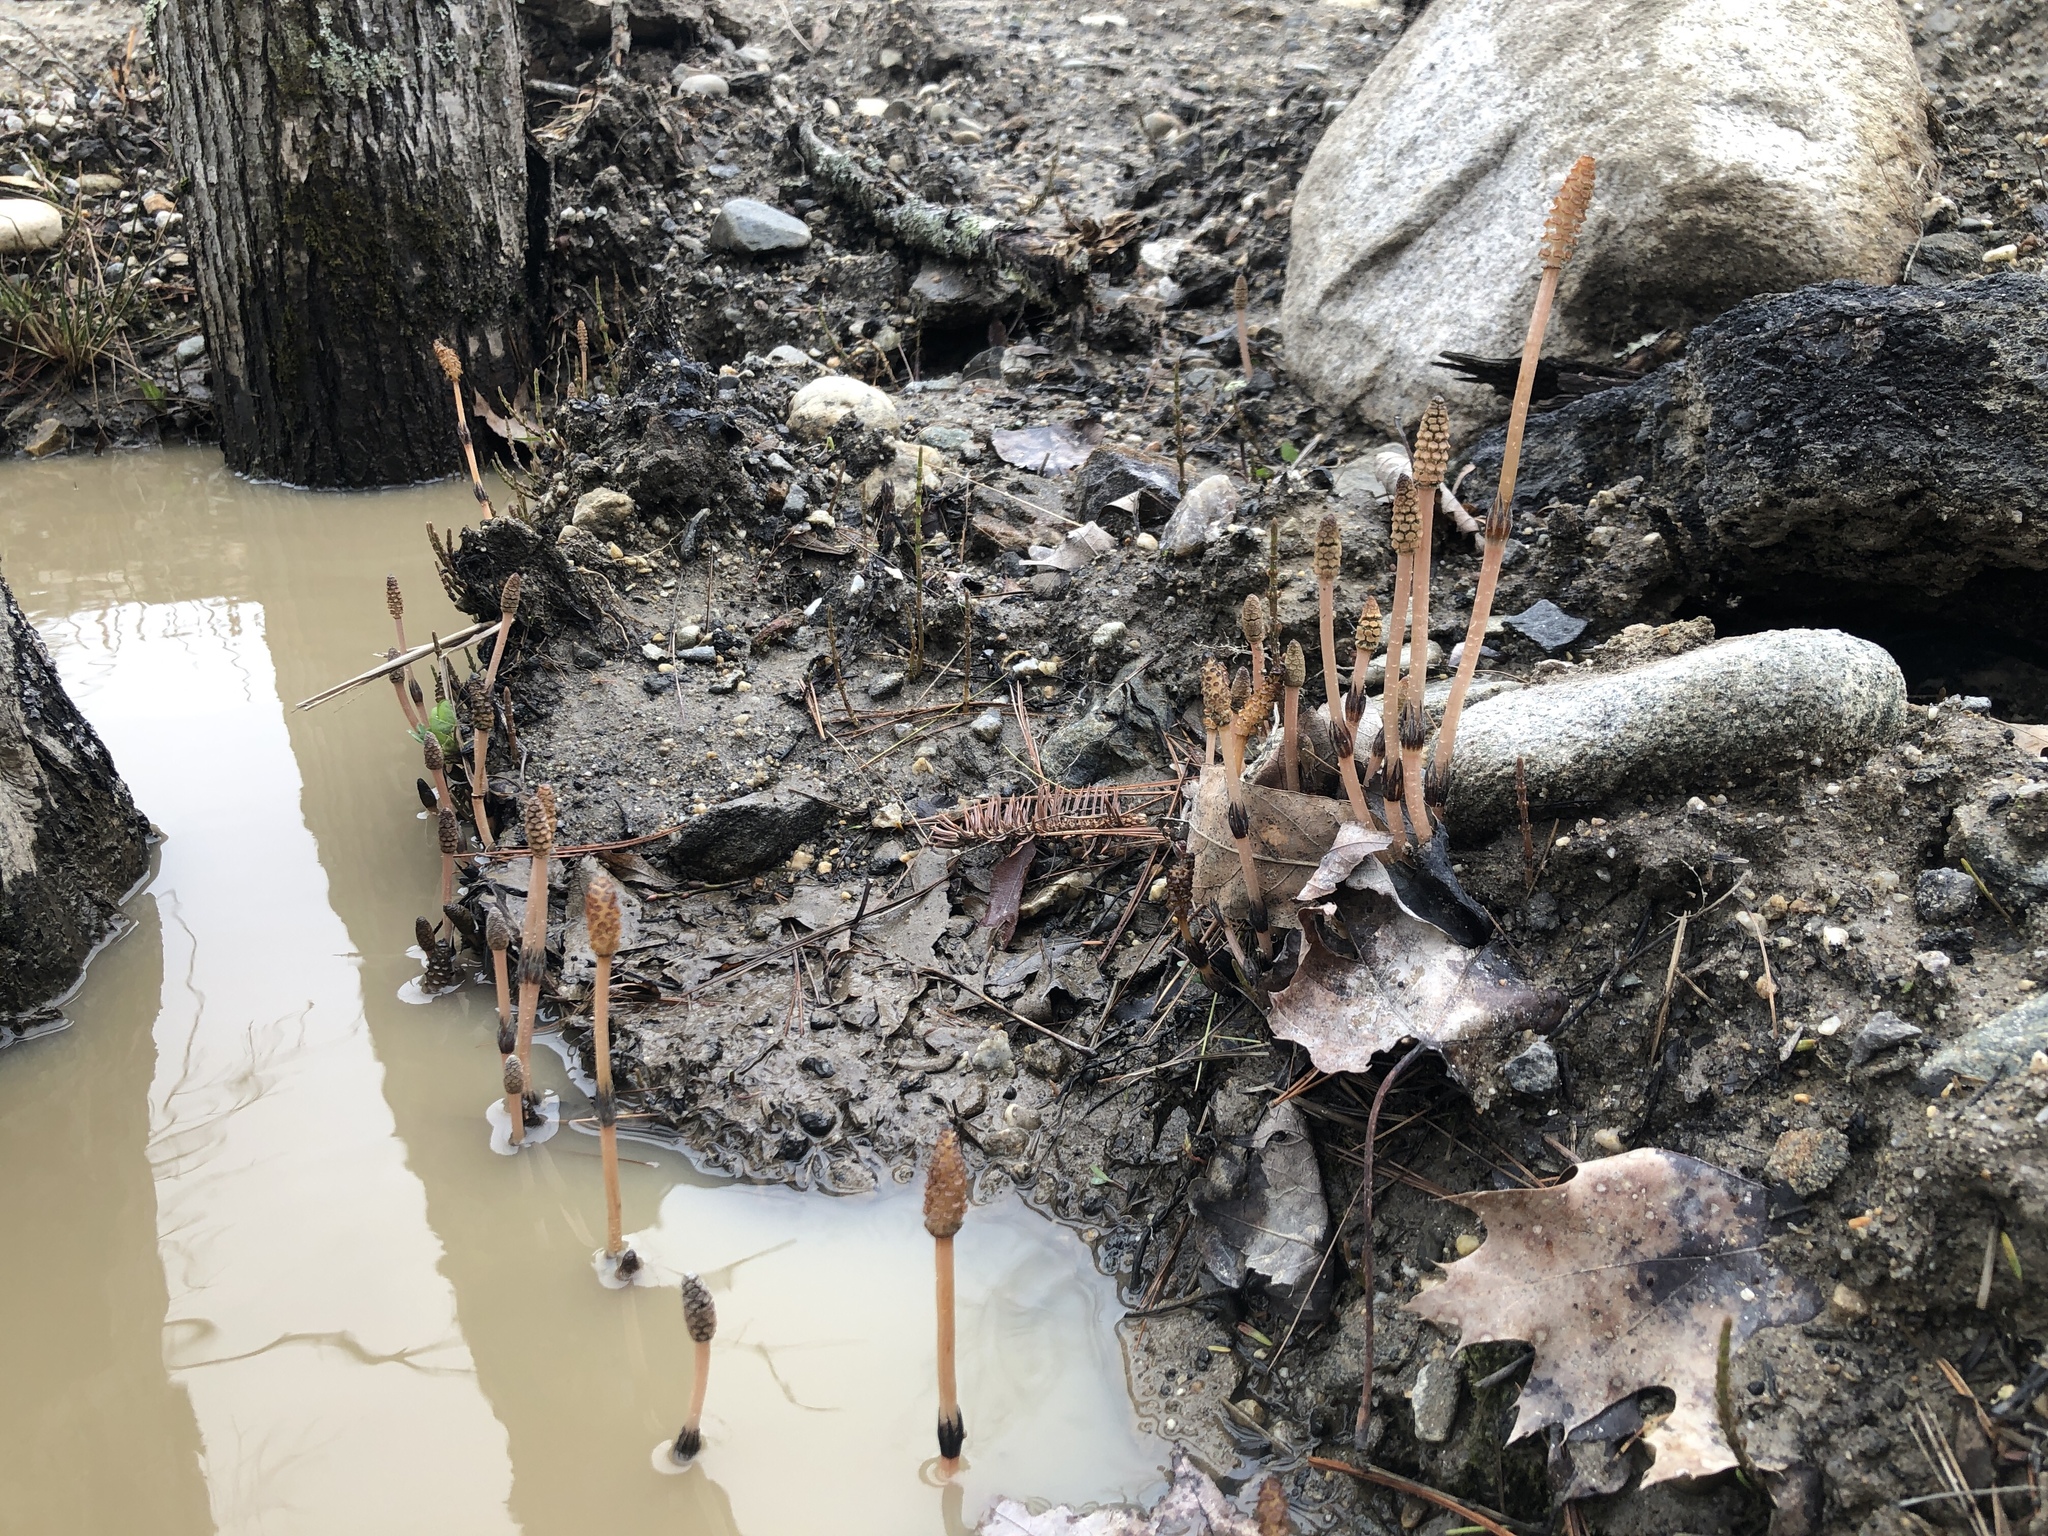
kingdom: Plantae
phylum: Tracheophyta
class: Polypodiopsida
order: Equisetales
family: Equisetaceae
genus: Equisetum
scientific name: Equisetum arvense
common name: Field horsetail
